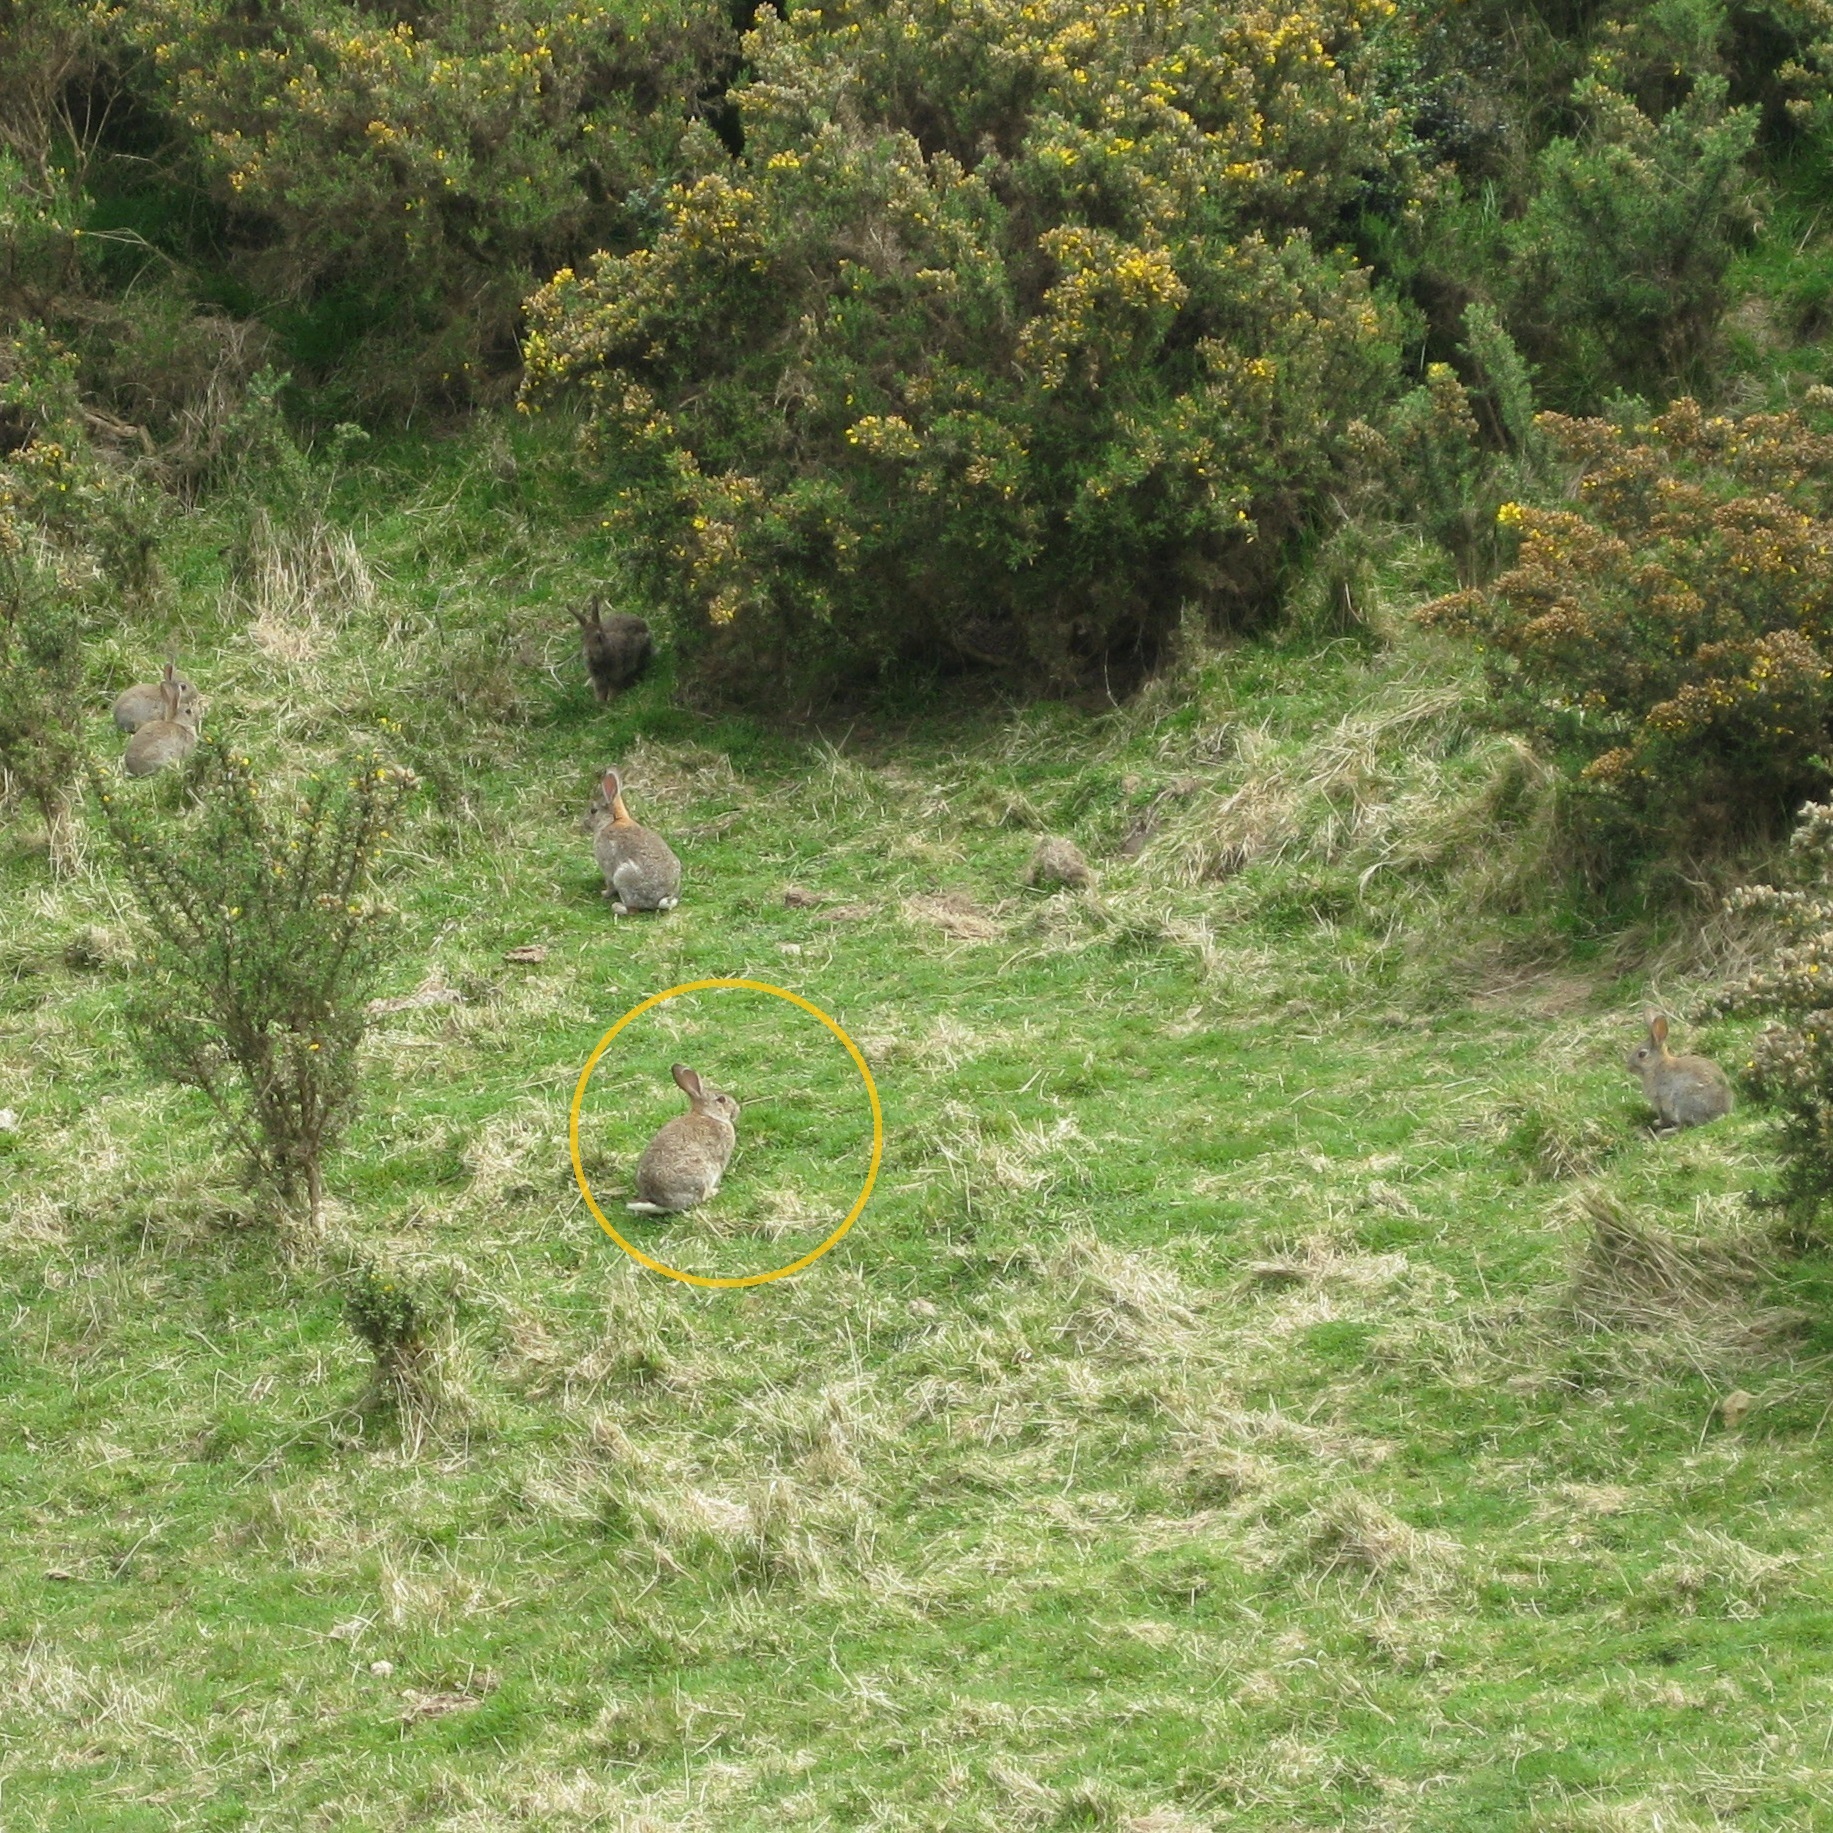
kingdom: Animalia
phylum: Chordata
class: Mammalia
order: Lagomorpha
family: Leporidae
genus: Oryctolagus
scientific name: Oryctolagus cuniculus
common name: European rabbit
